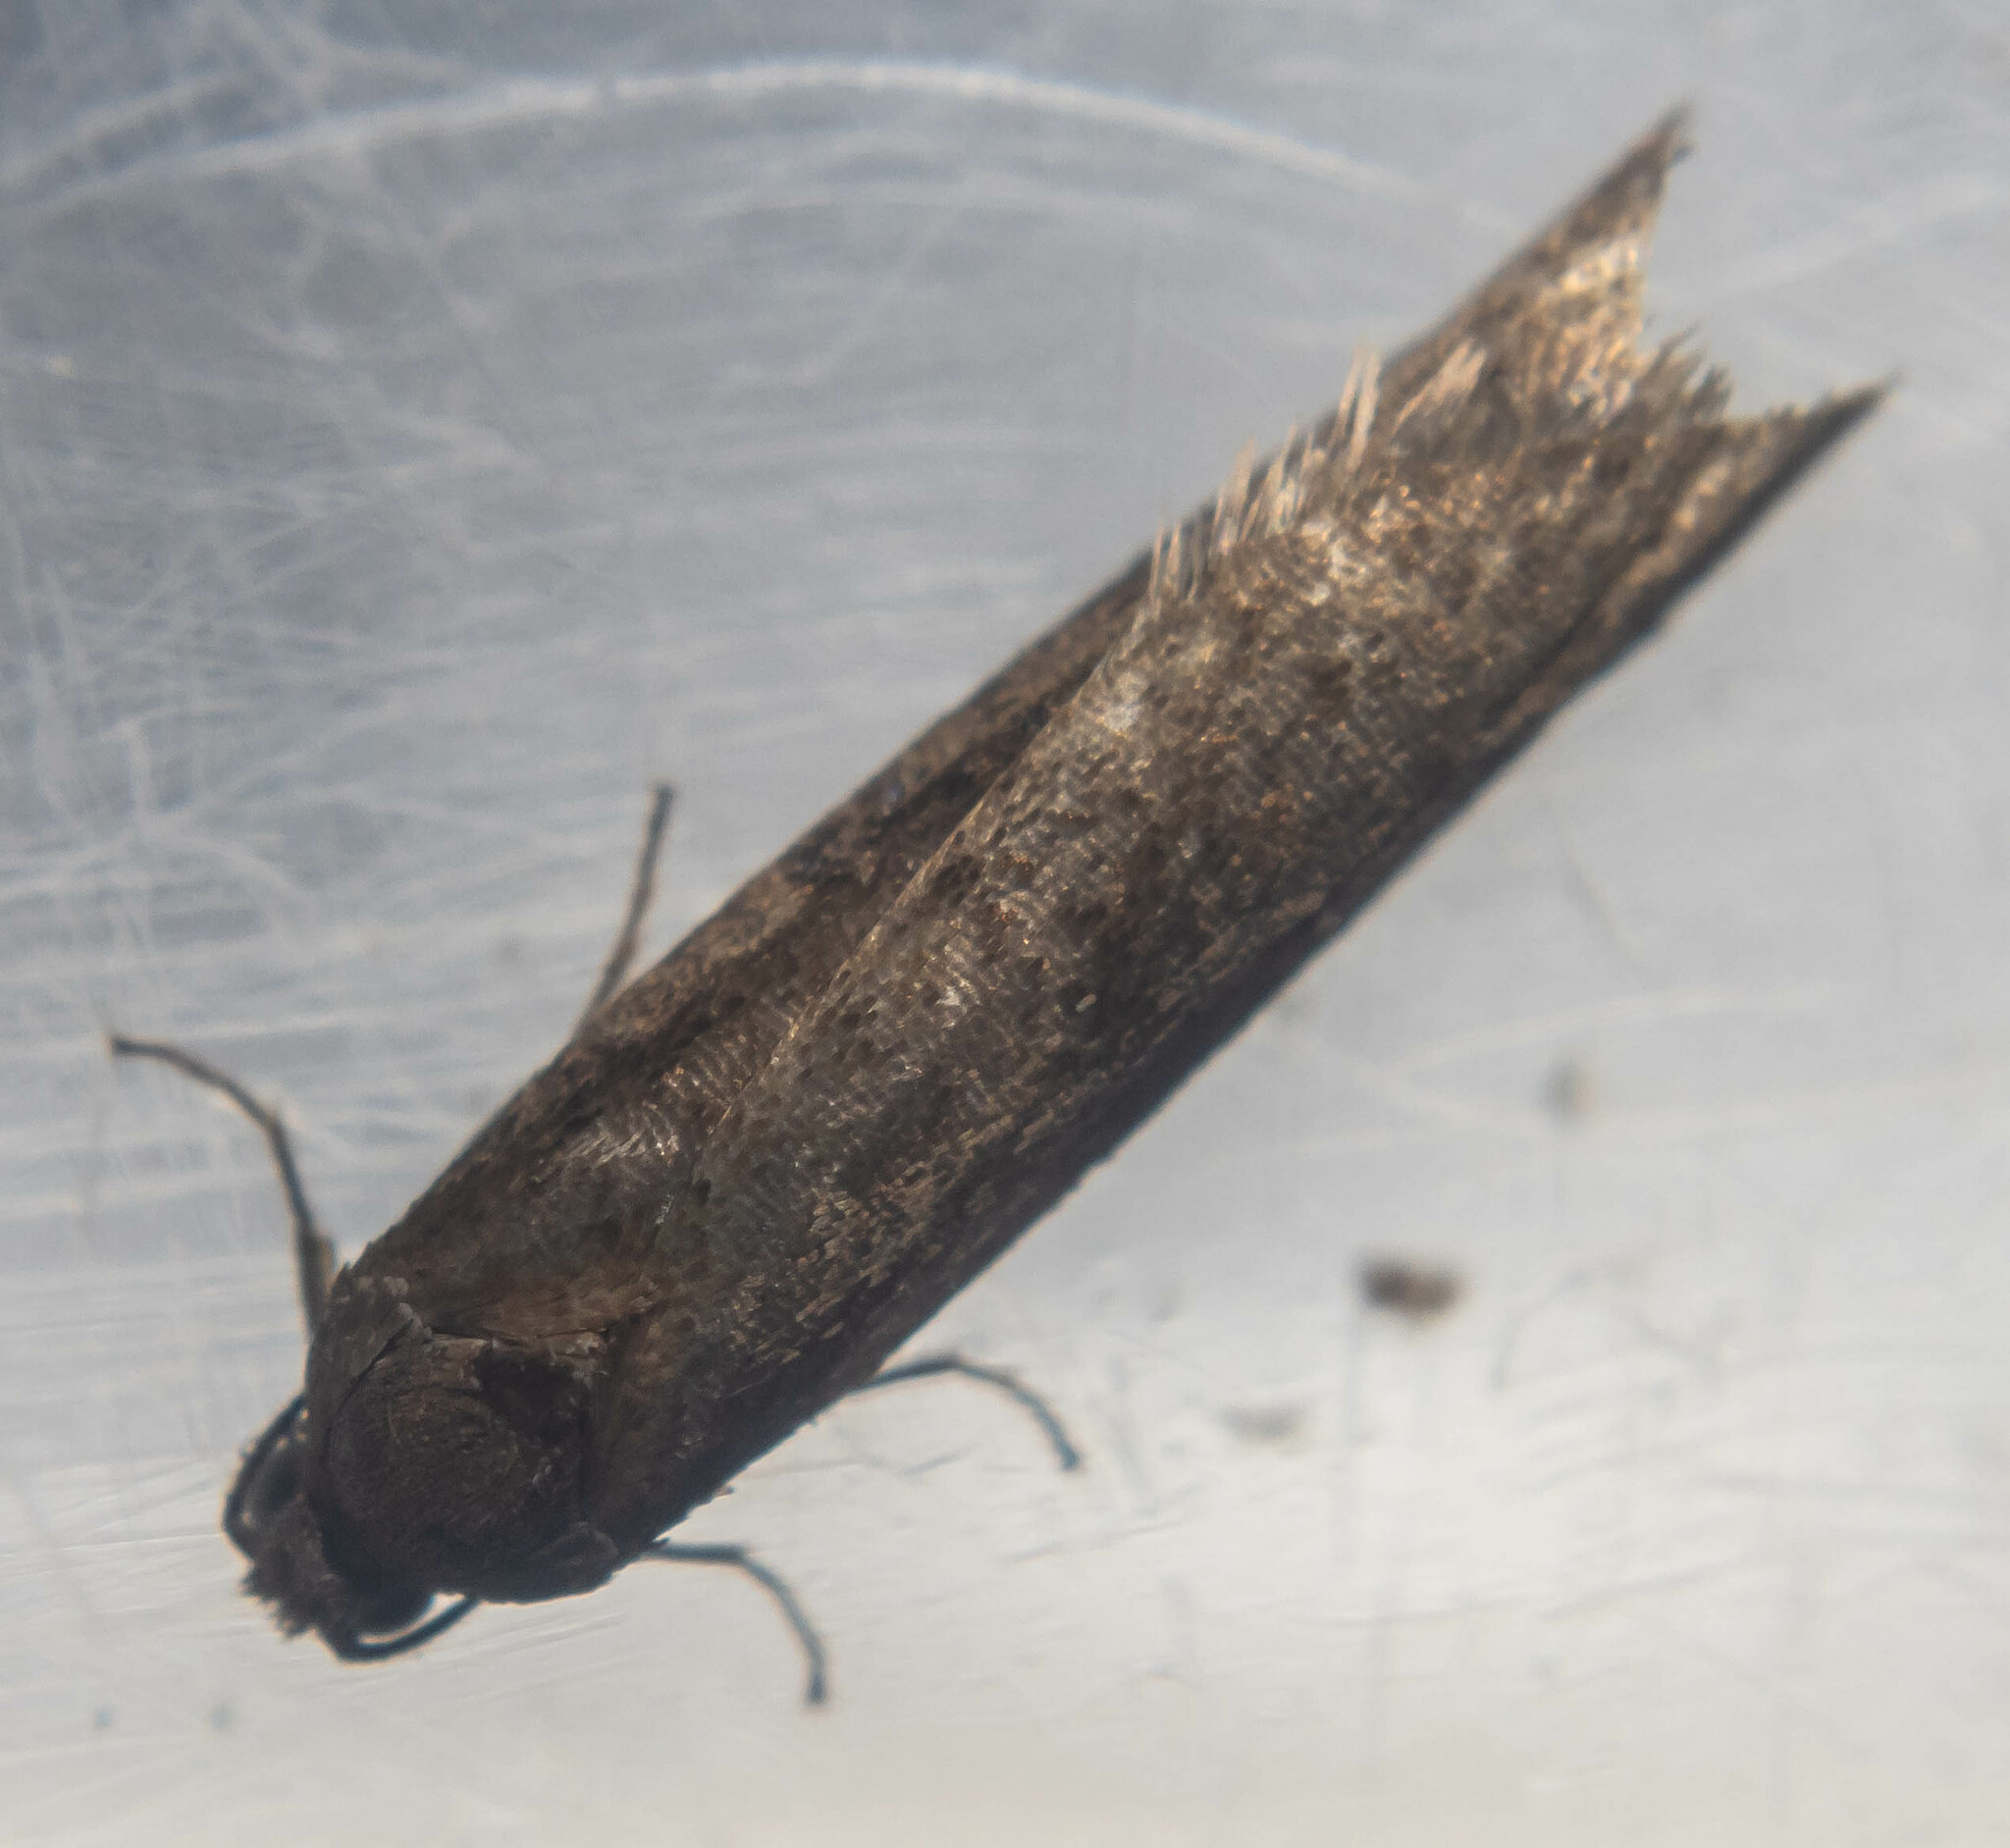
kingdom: Animalia
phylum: Arthropoda
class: Insecta
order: Lepidoptera
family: Tortricidae
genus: Tortricodes
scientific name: Tortricodes alternella
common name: Winter shade
